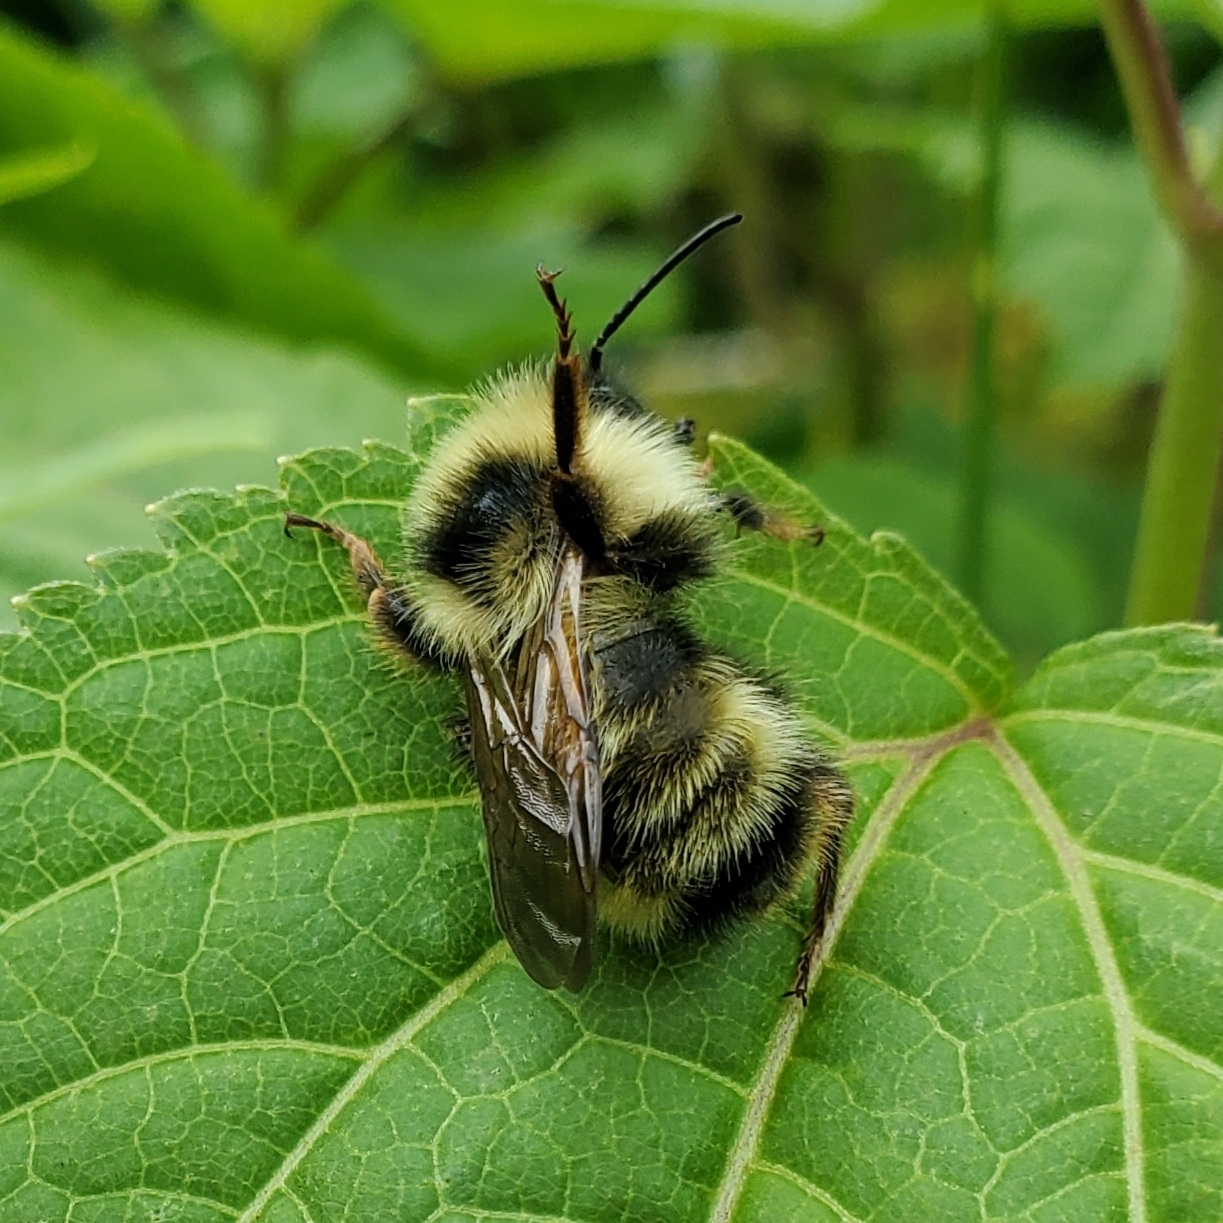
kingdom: Animalia
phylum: Arthropoda
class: Insecta
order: Hymenoptera
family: Apidae
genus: Bombus
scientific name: Bombus flavidus
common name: Fernald cuckoo bumble bee
